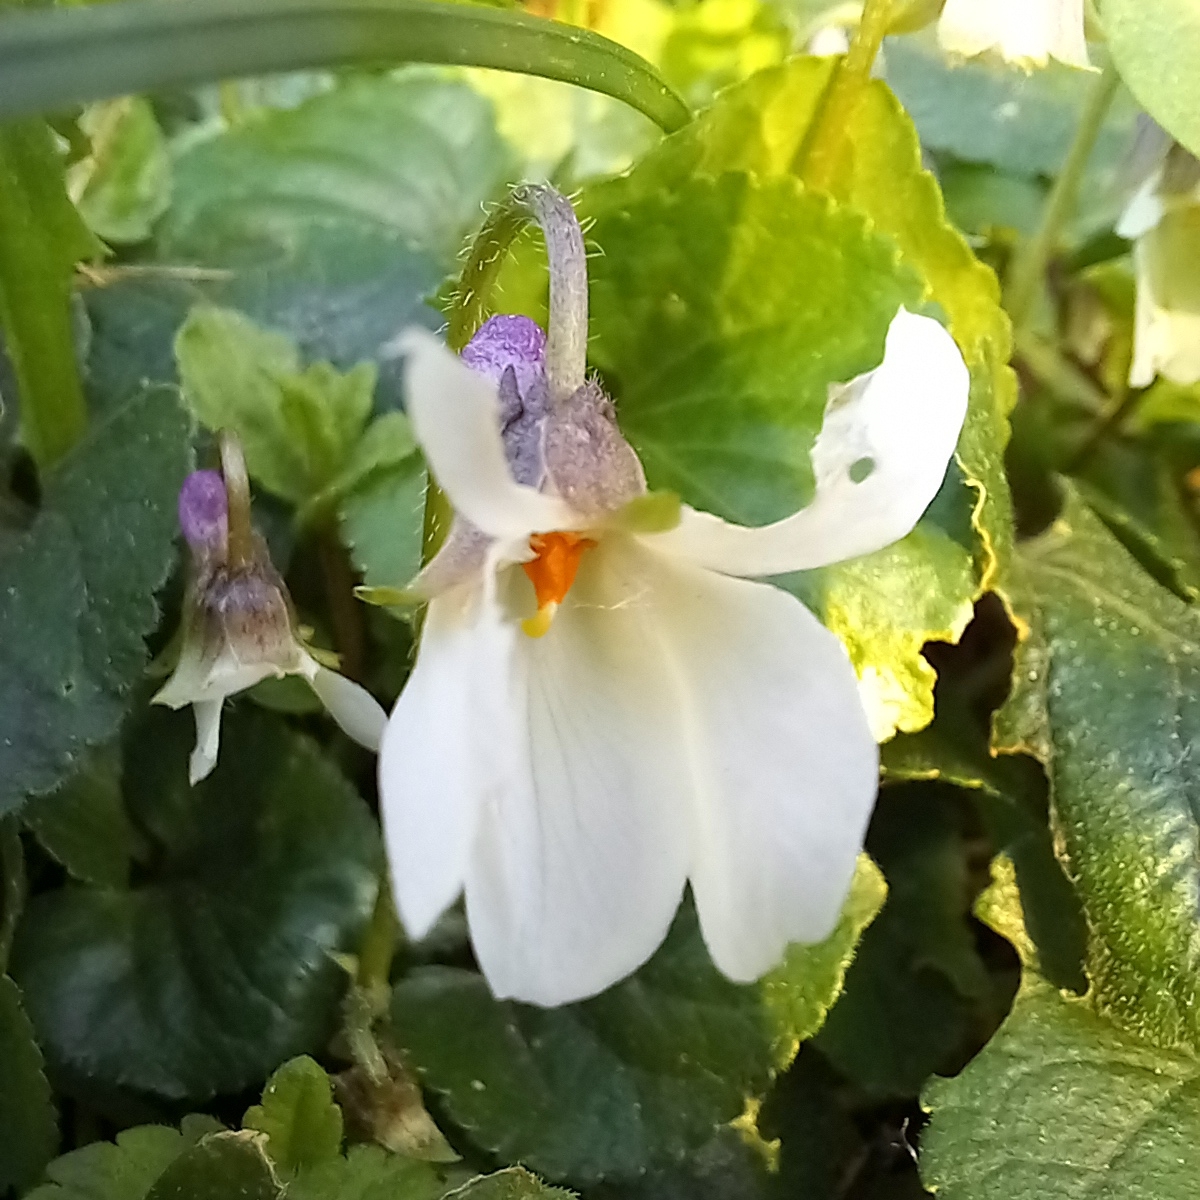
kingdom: Plantae
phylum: Tracheophyta
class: Magnoliopsida
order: Malpighiales
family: Violaceae
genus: Viola
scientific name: Viola odorata
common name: Sweet violet
